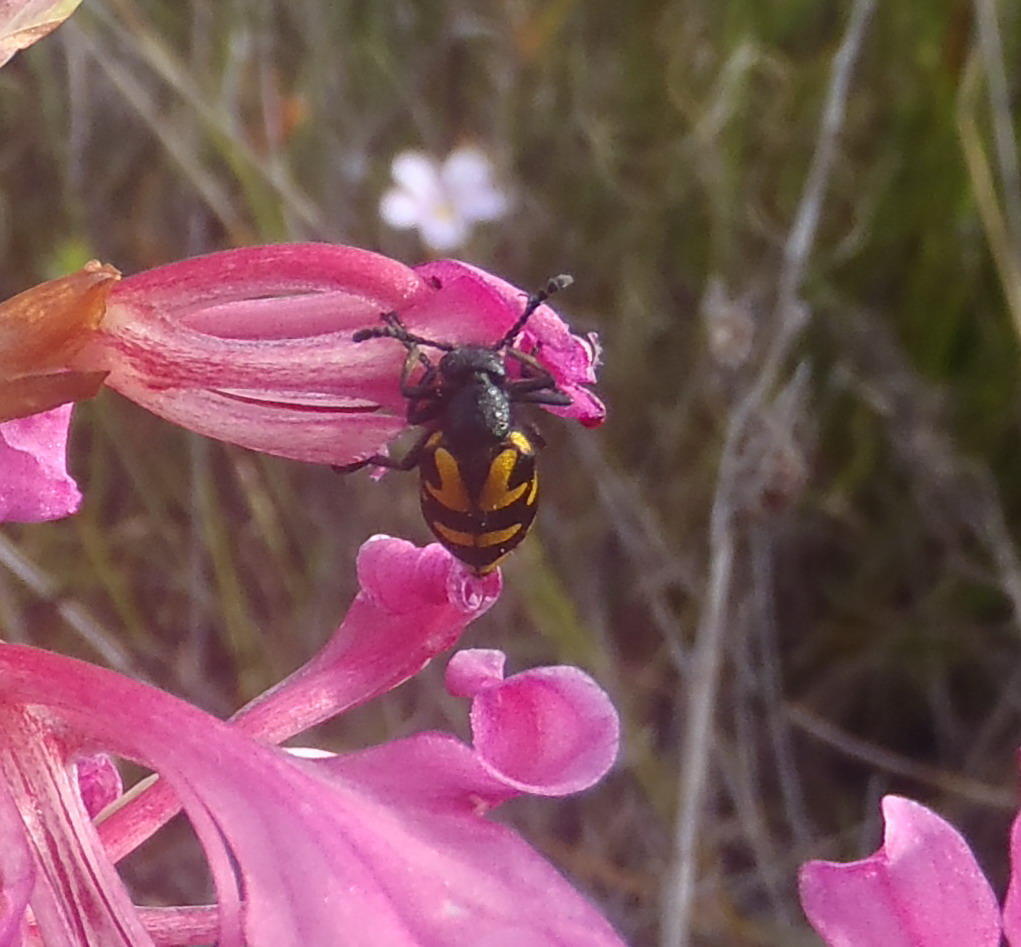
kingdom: Animalia
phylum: Arthropoda
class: Insecta
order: Coleoptera
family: Meloidae
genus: Ceroctis
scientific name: Ceroctis capensis
